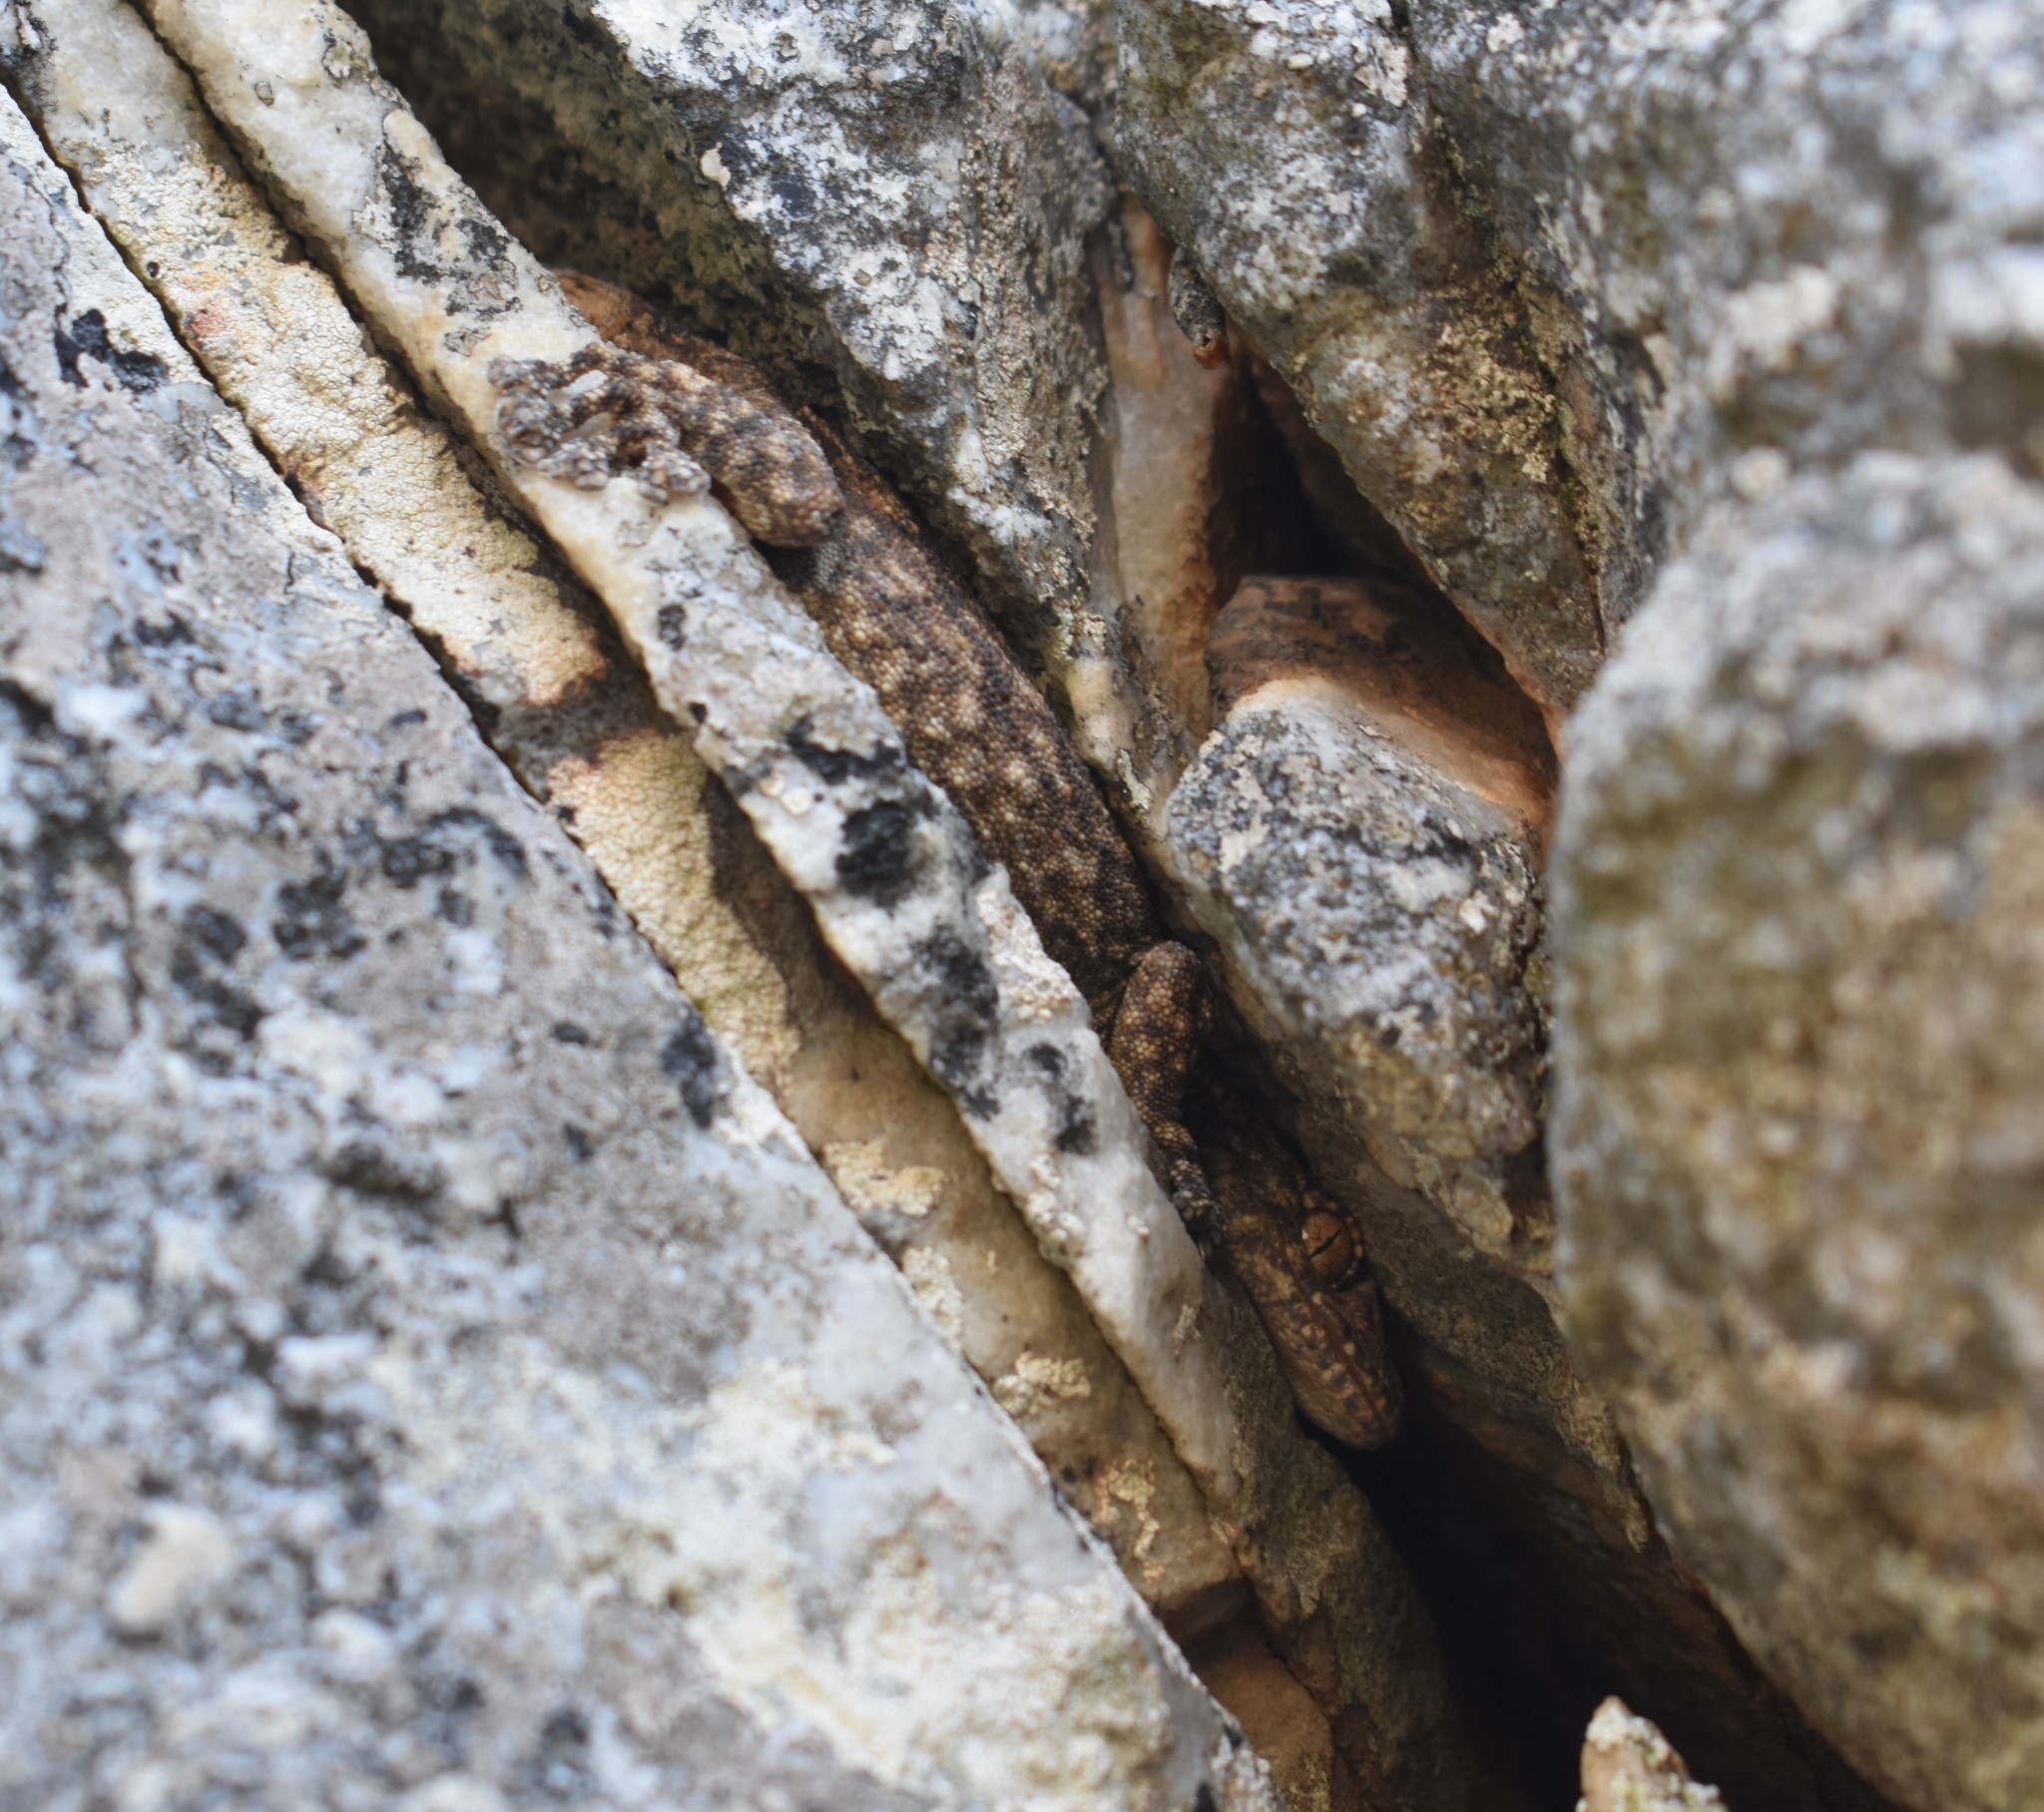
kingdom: Animalia
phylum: Chordata
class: Squamata
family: Gekkonidae
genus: Ramigekko
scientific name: Ramigekko swartbergensis
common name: Swartberg african leaf-toed gecko
